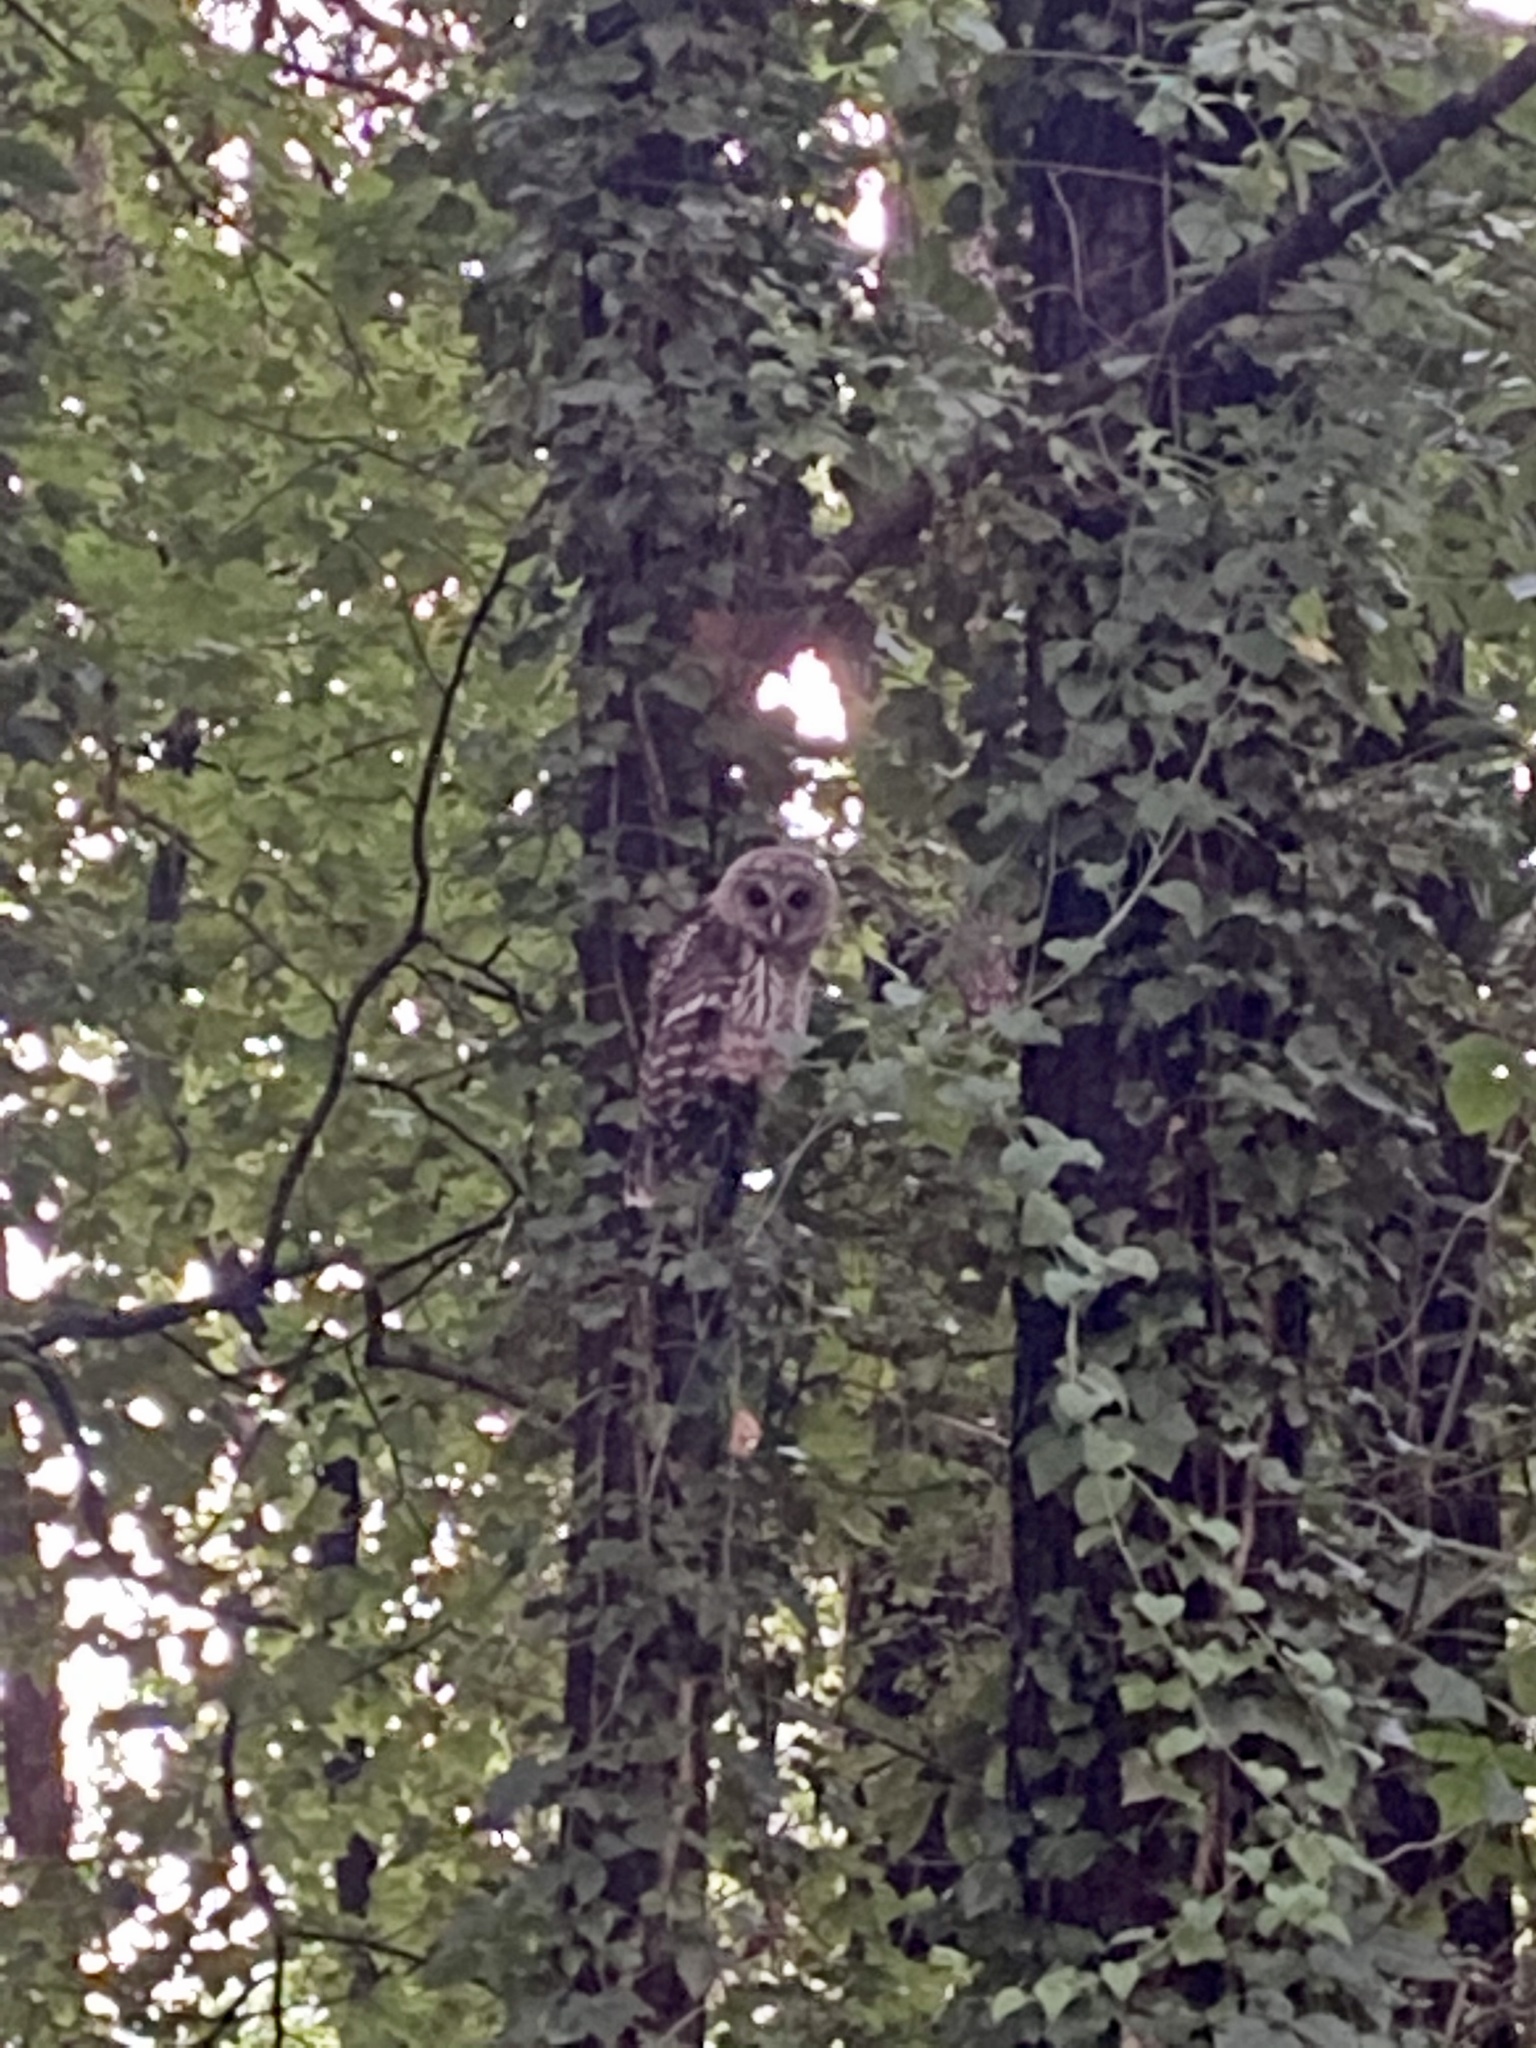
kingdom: Animalia
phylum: Chordata
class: Aves
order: Strigiformes
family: Strigidae
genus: Strix
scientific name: Strix varia
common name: Barred owl
